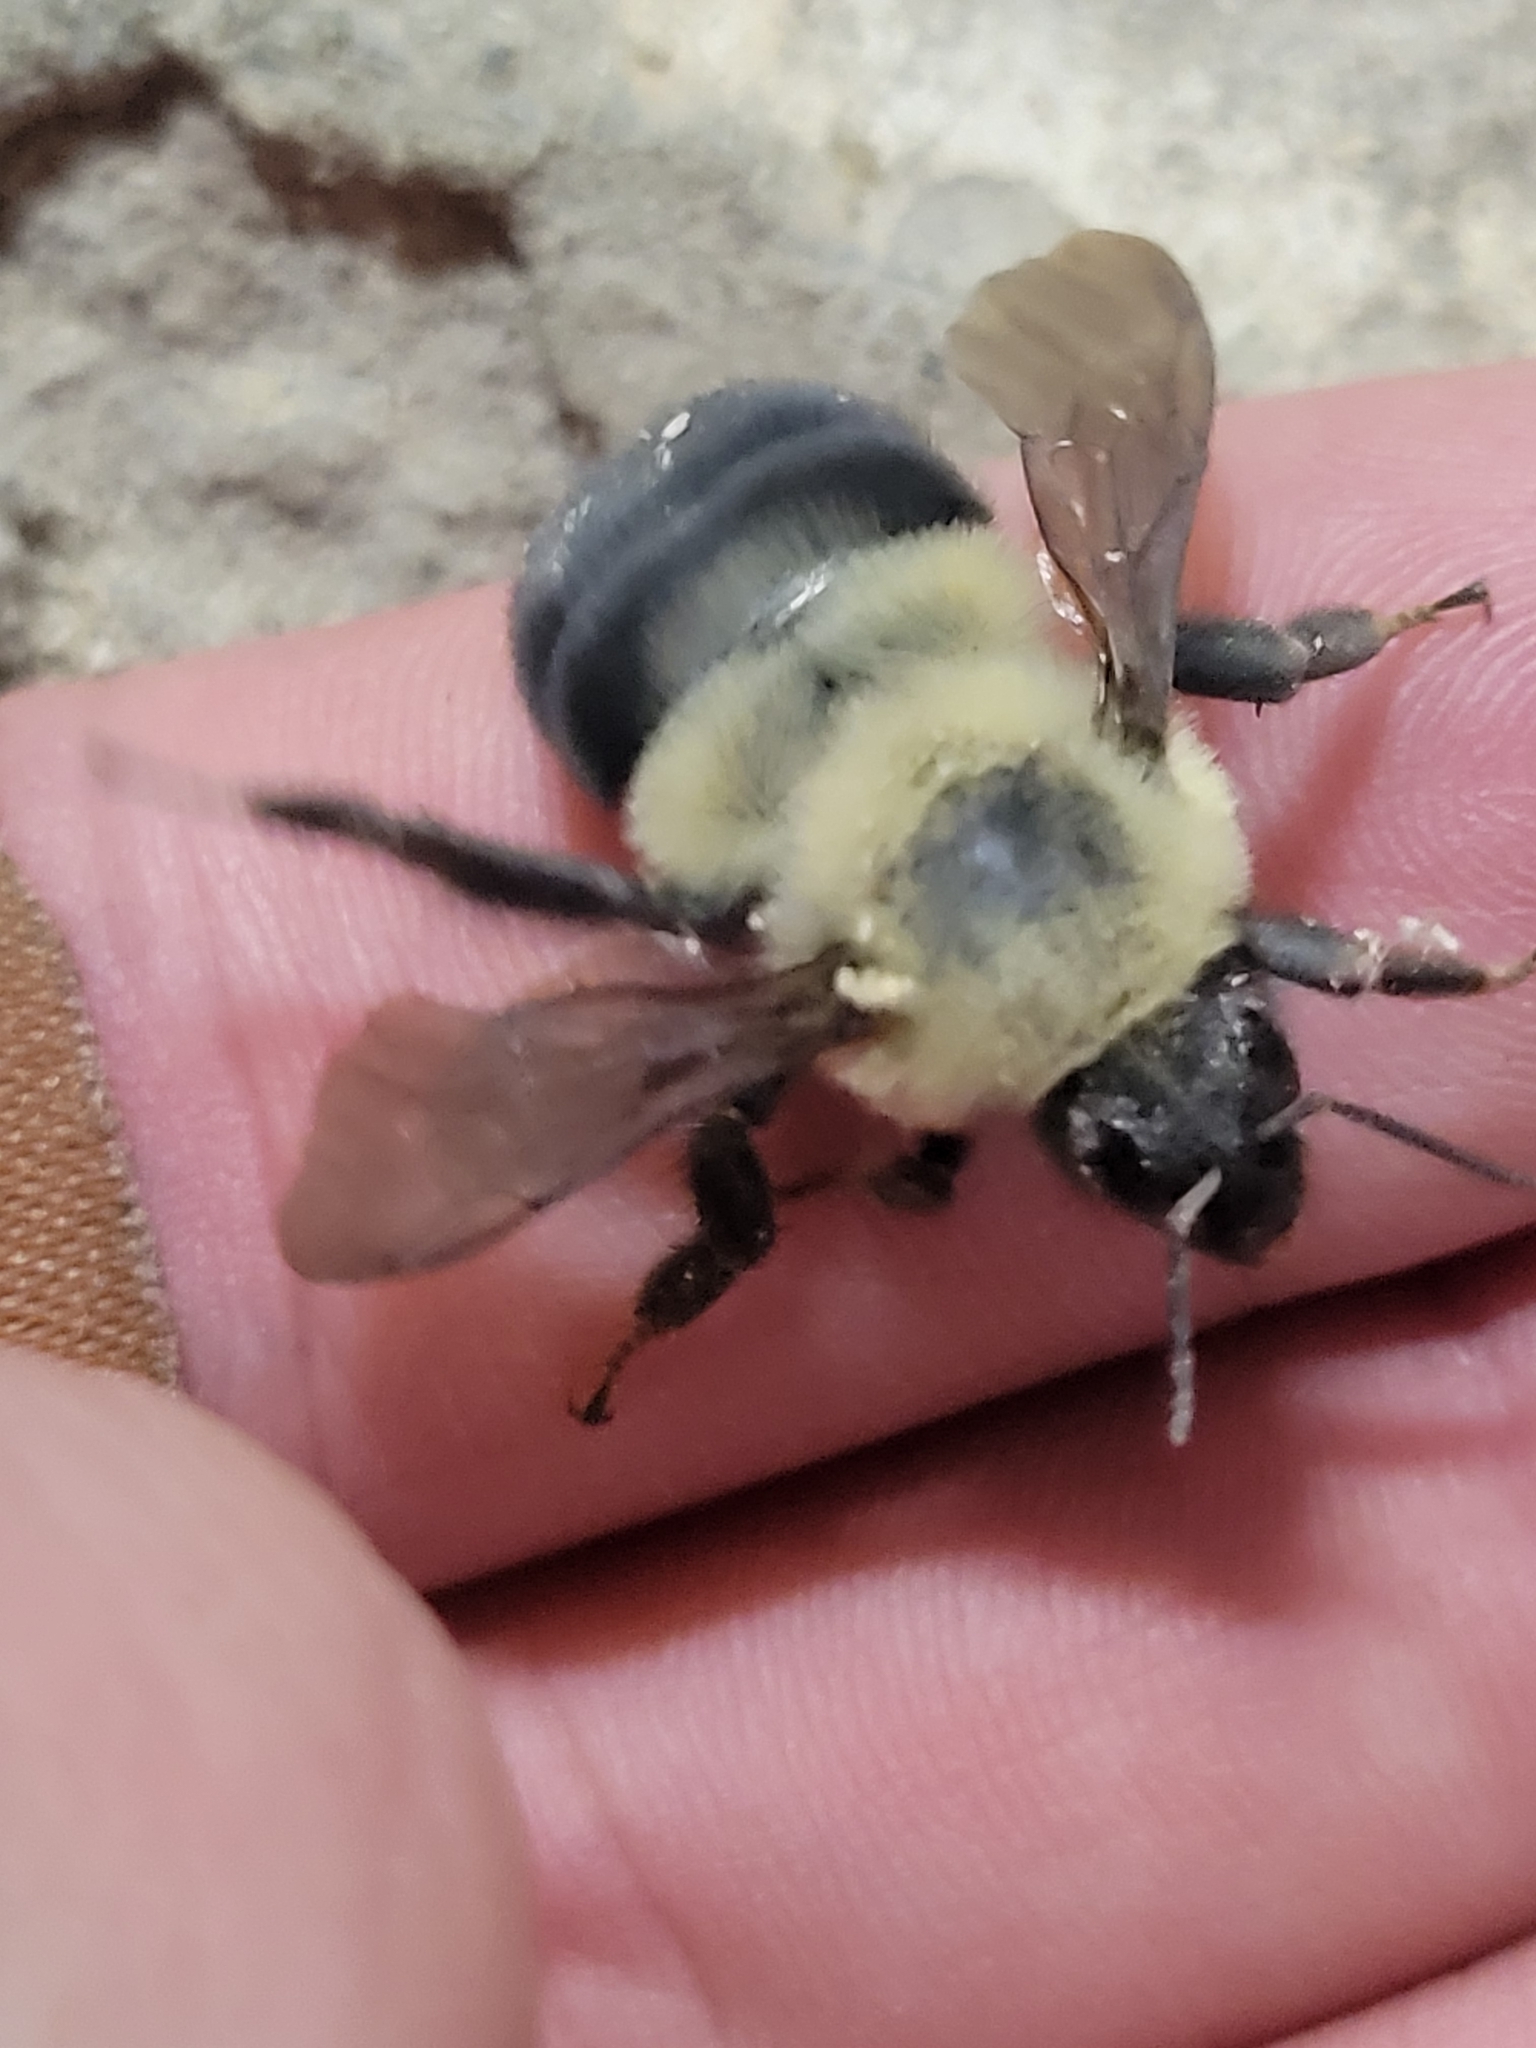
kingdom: Animalia
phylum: Arthropoda
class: Insecta
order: Hymenoptera
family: Apidae
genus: Bombus
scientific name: Bombus bimaculatus
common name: Two-spotted bumble bee
